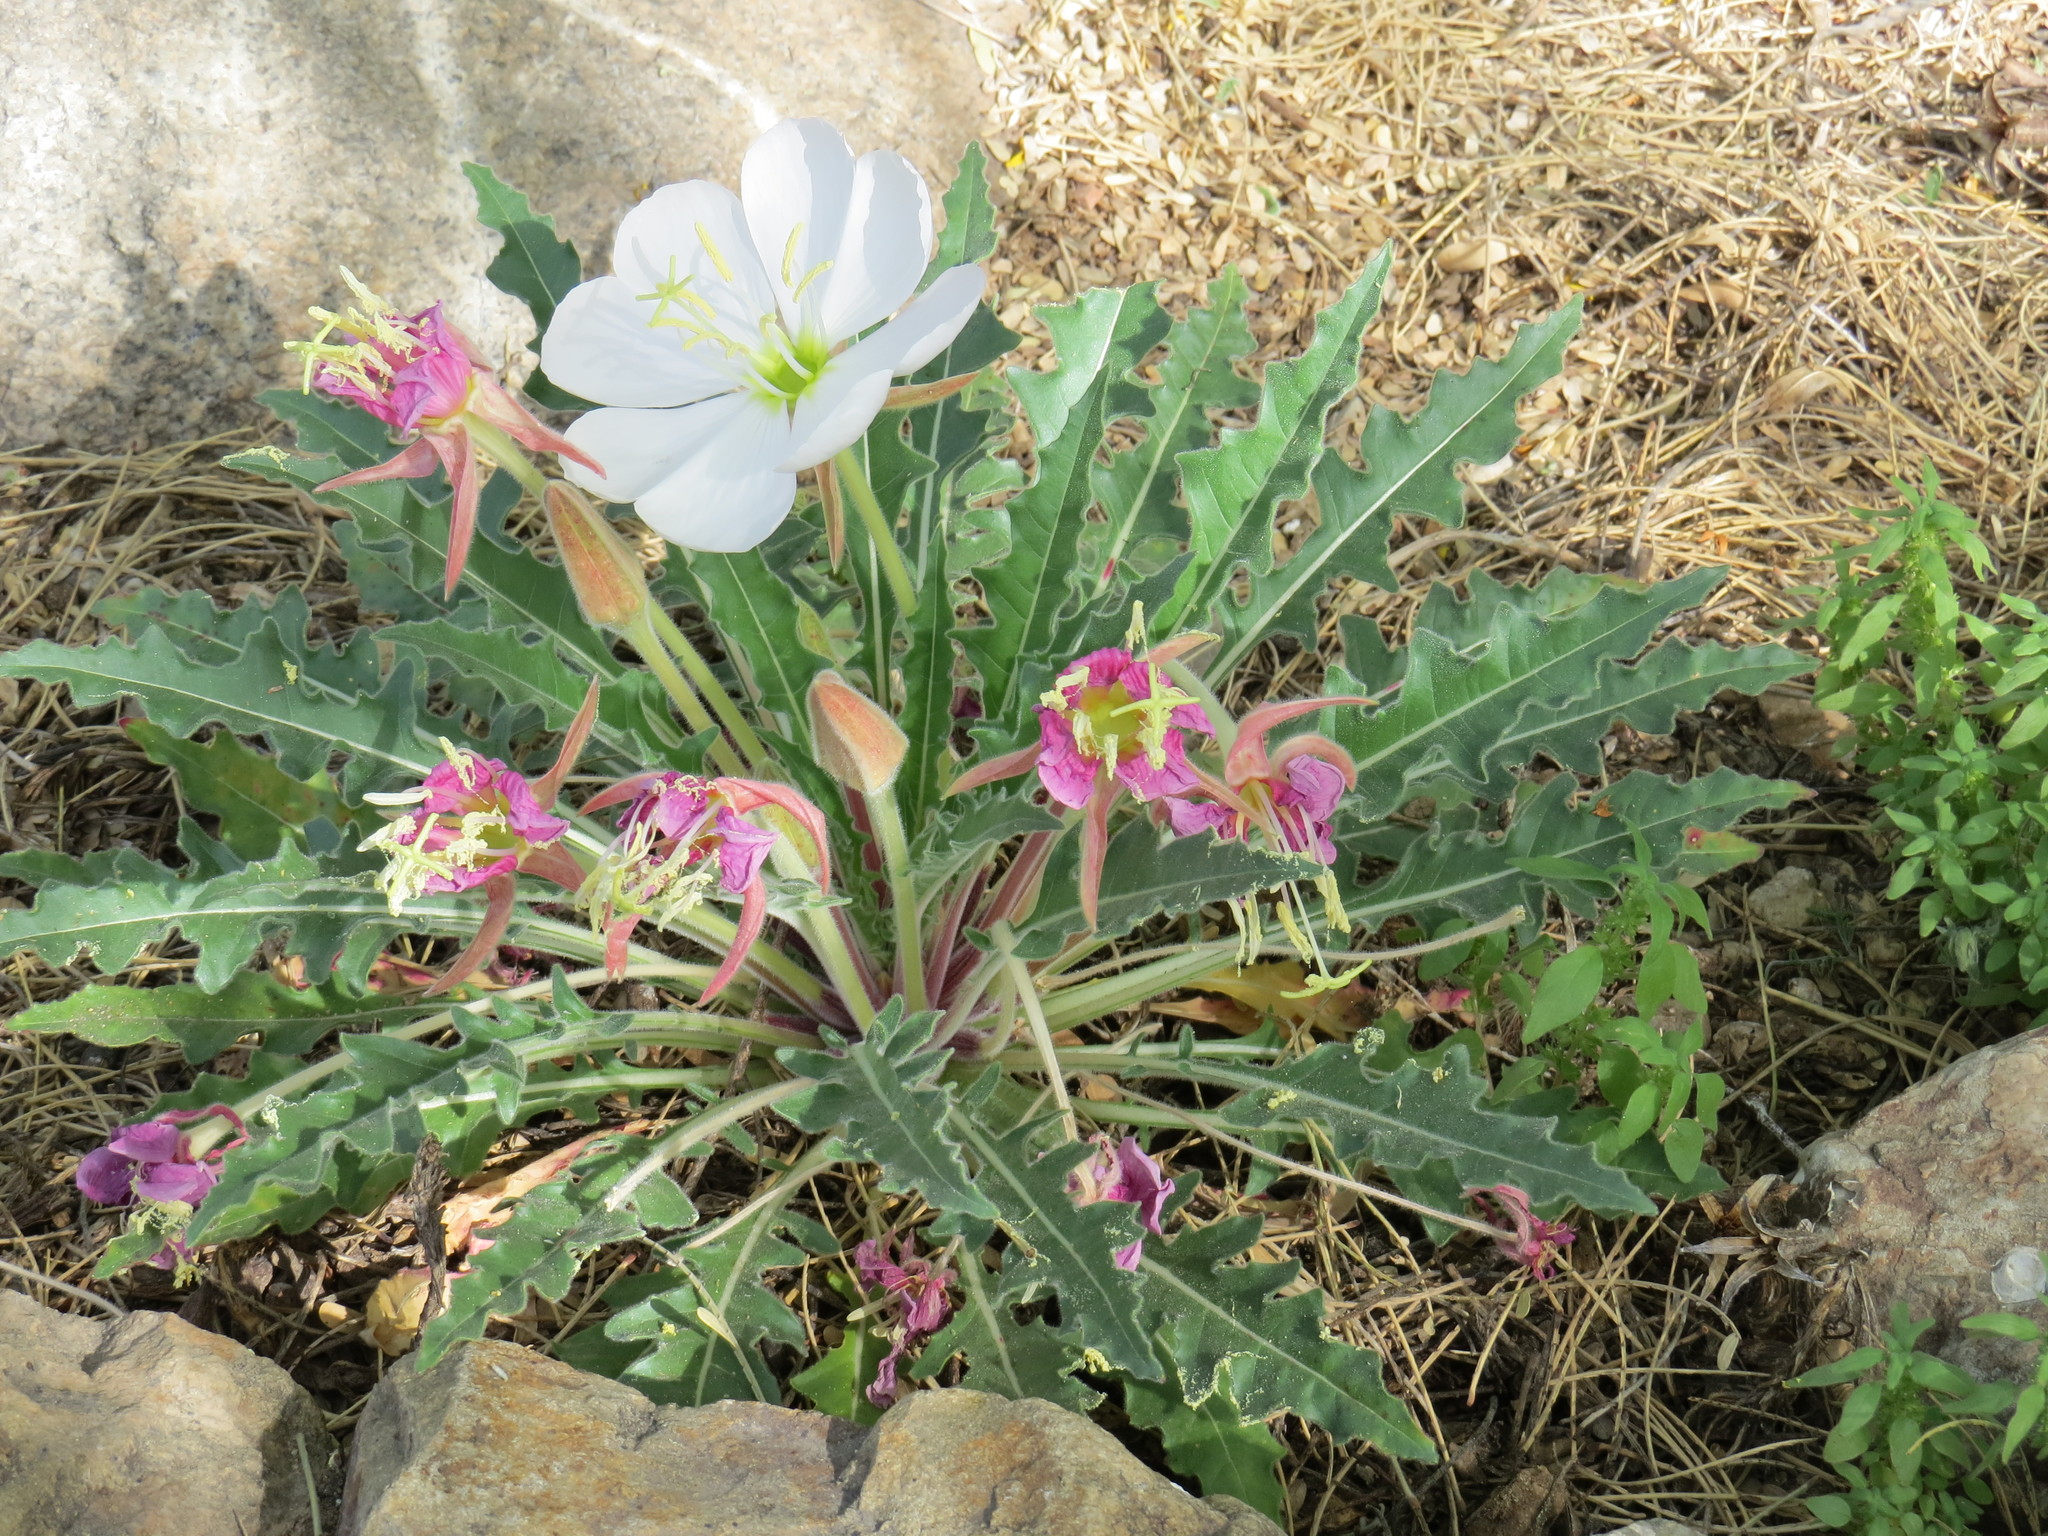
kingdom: Plantae
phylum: Tracheophyta
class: Magnoliopsida
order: Myrtales
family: Onagraceae
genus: Oenothera
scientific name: Oenothera cespitosa
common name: Tufted evening-primrose
